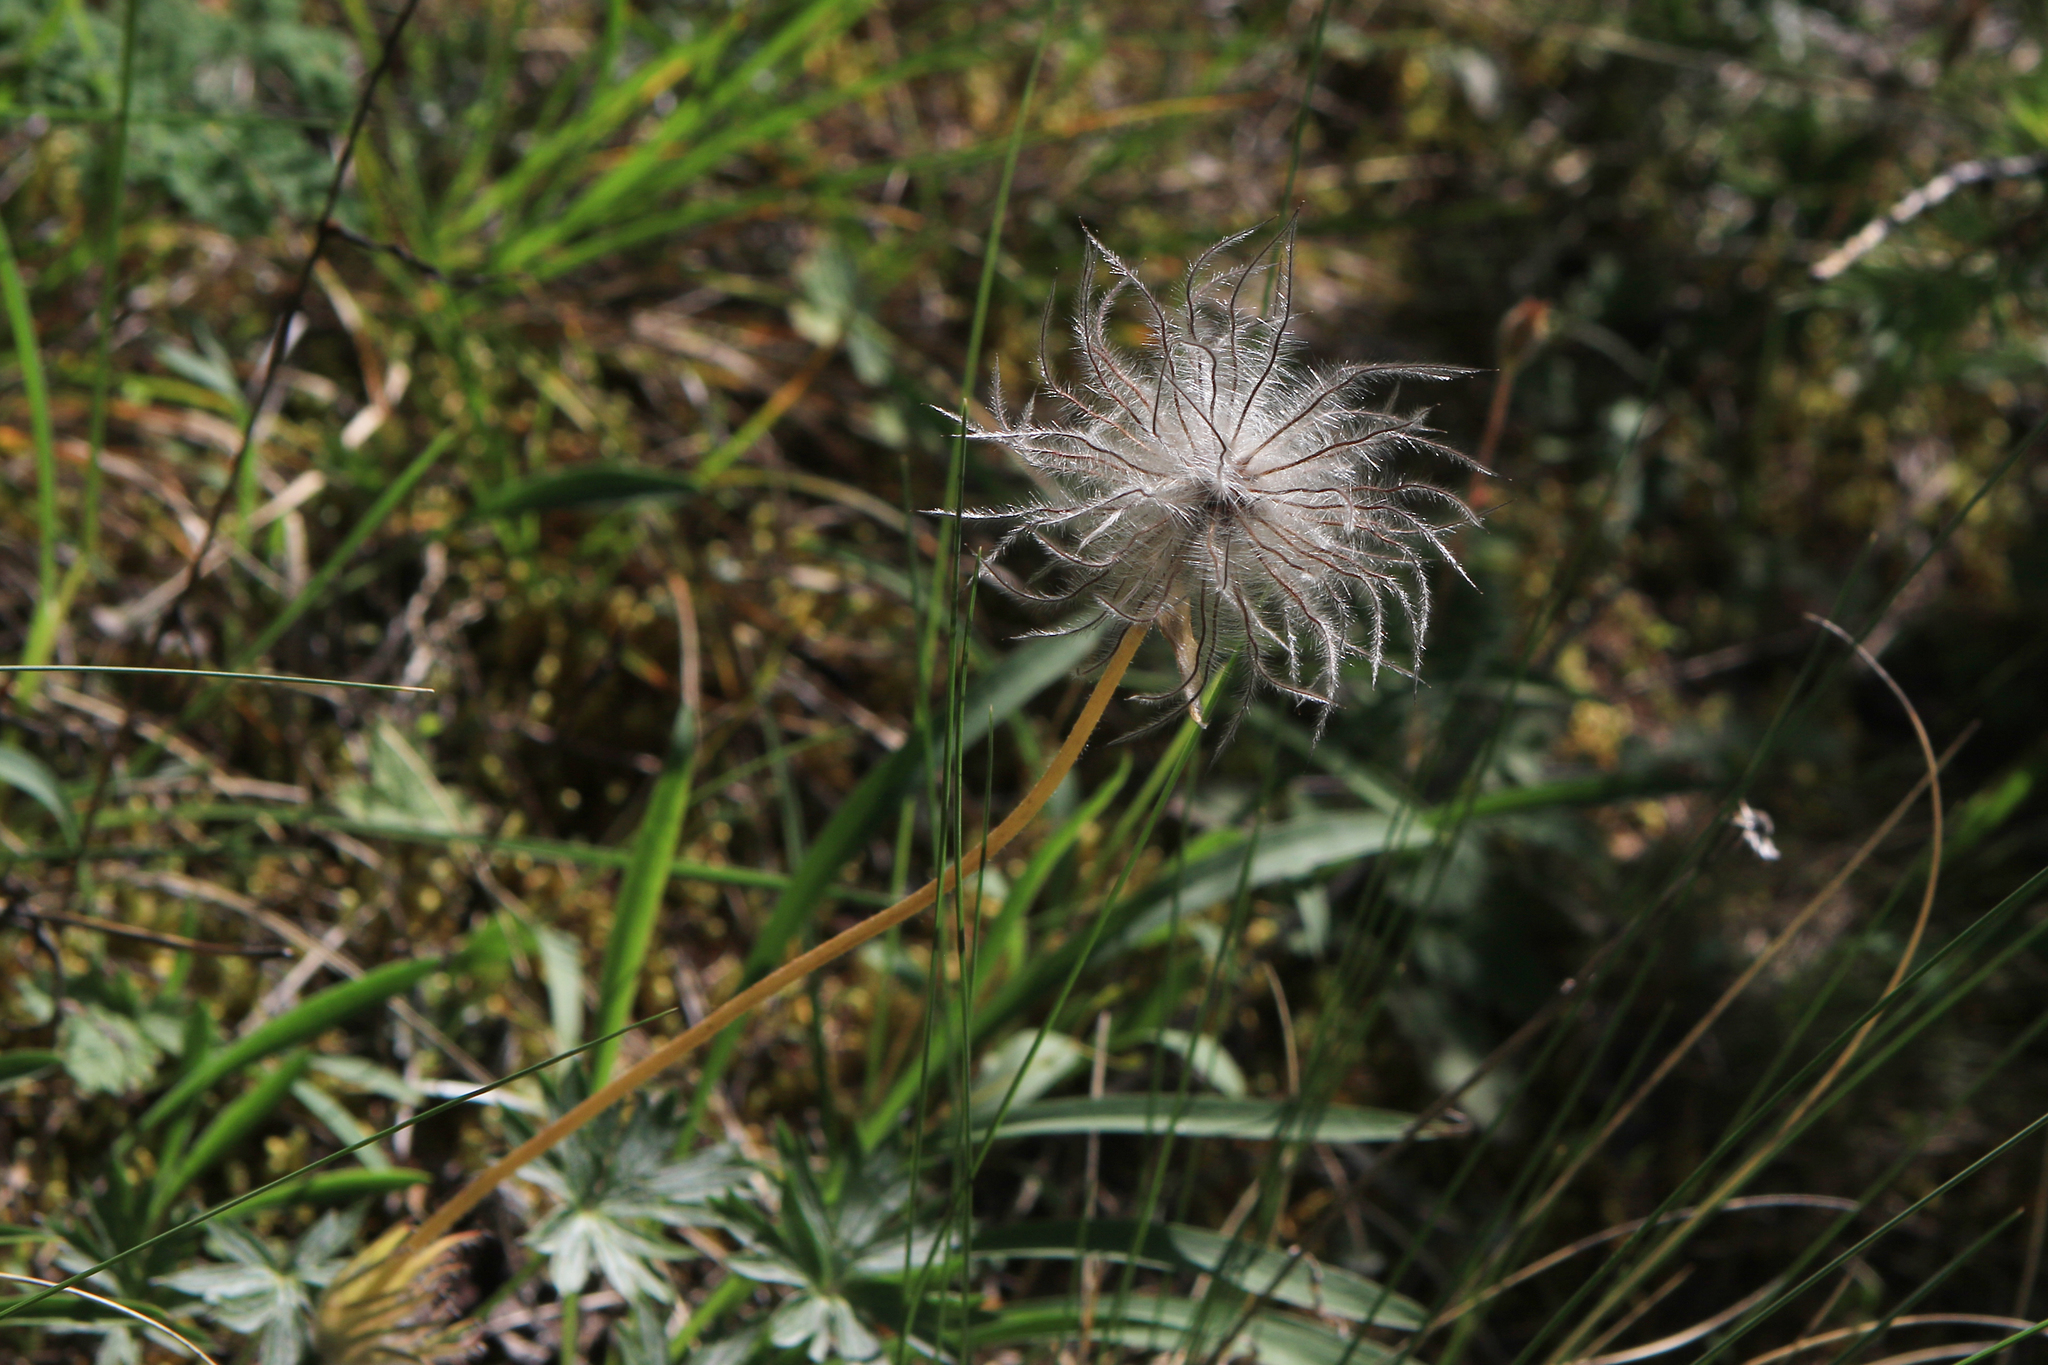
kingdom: Plantae
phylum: Tracheophyta
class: Magnoliopsida
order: Ranunculales
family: Ranunculaceae
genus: Pulsatilla
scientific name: Pulsatilla patens
